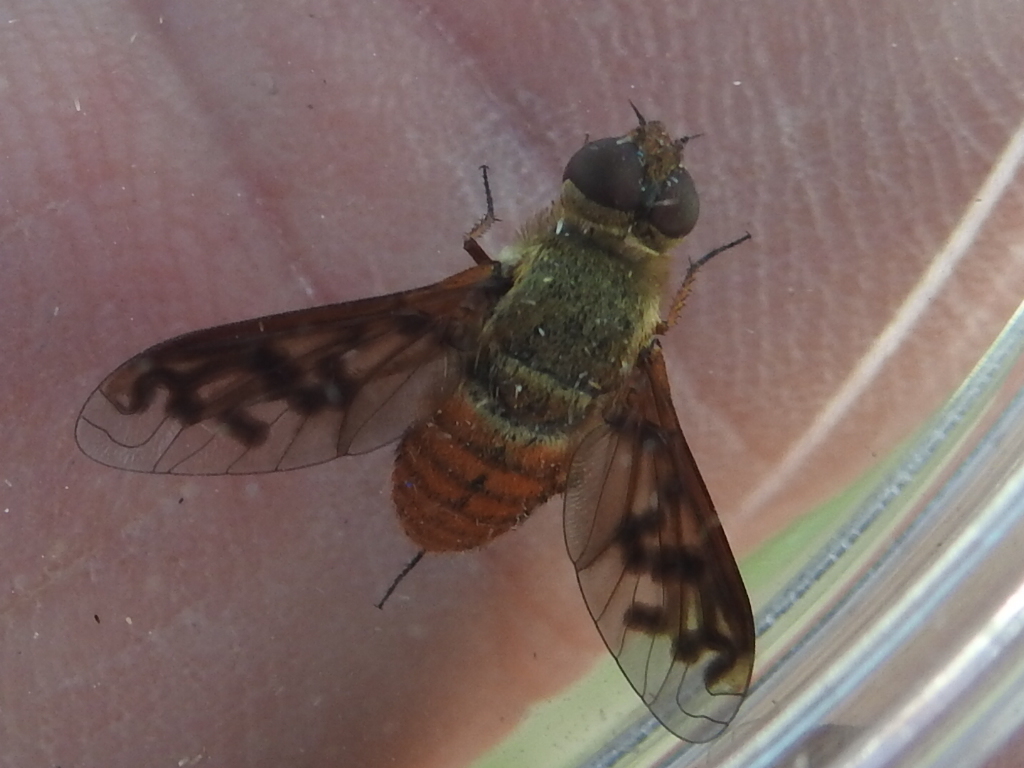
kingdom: Animalia
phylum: Arthropoda
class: Insecta
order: Diptera
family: Bombyliidae
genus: Neodiplocampta
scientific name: Neodiplocampta miranda
